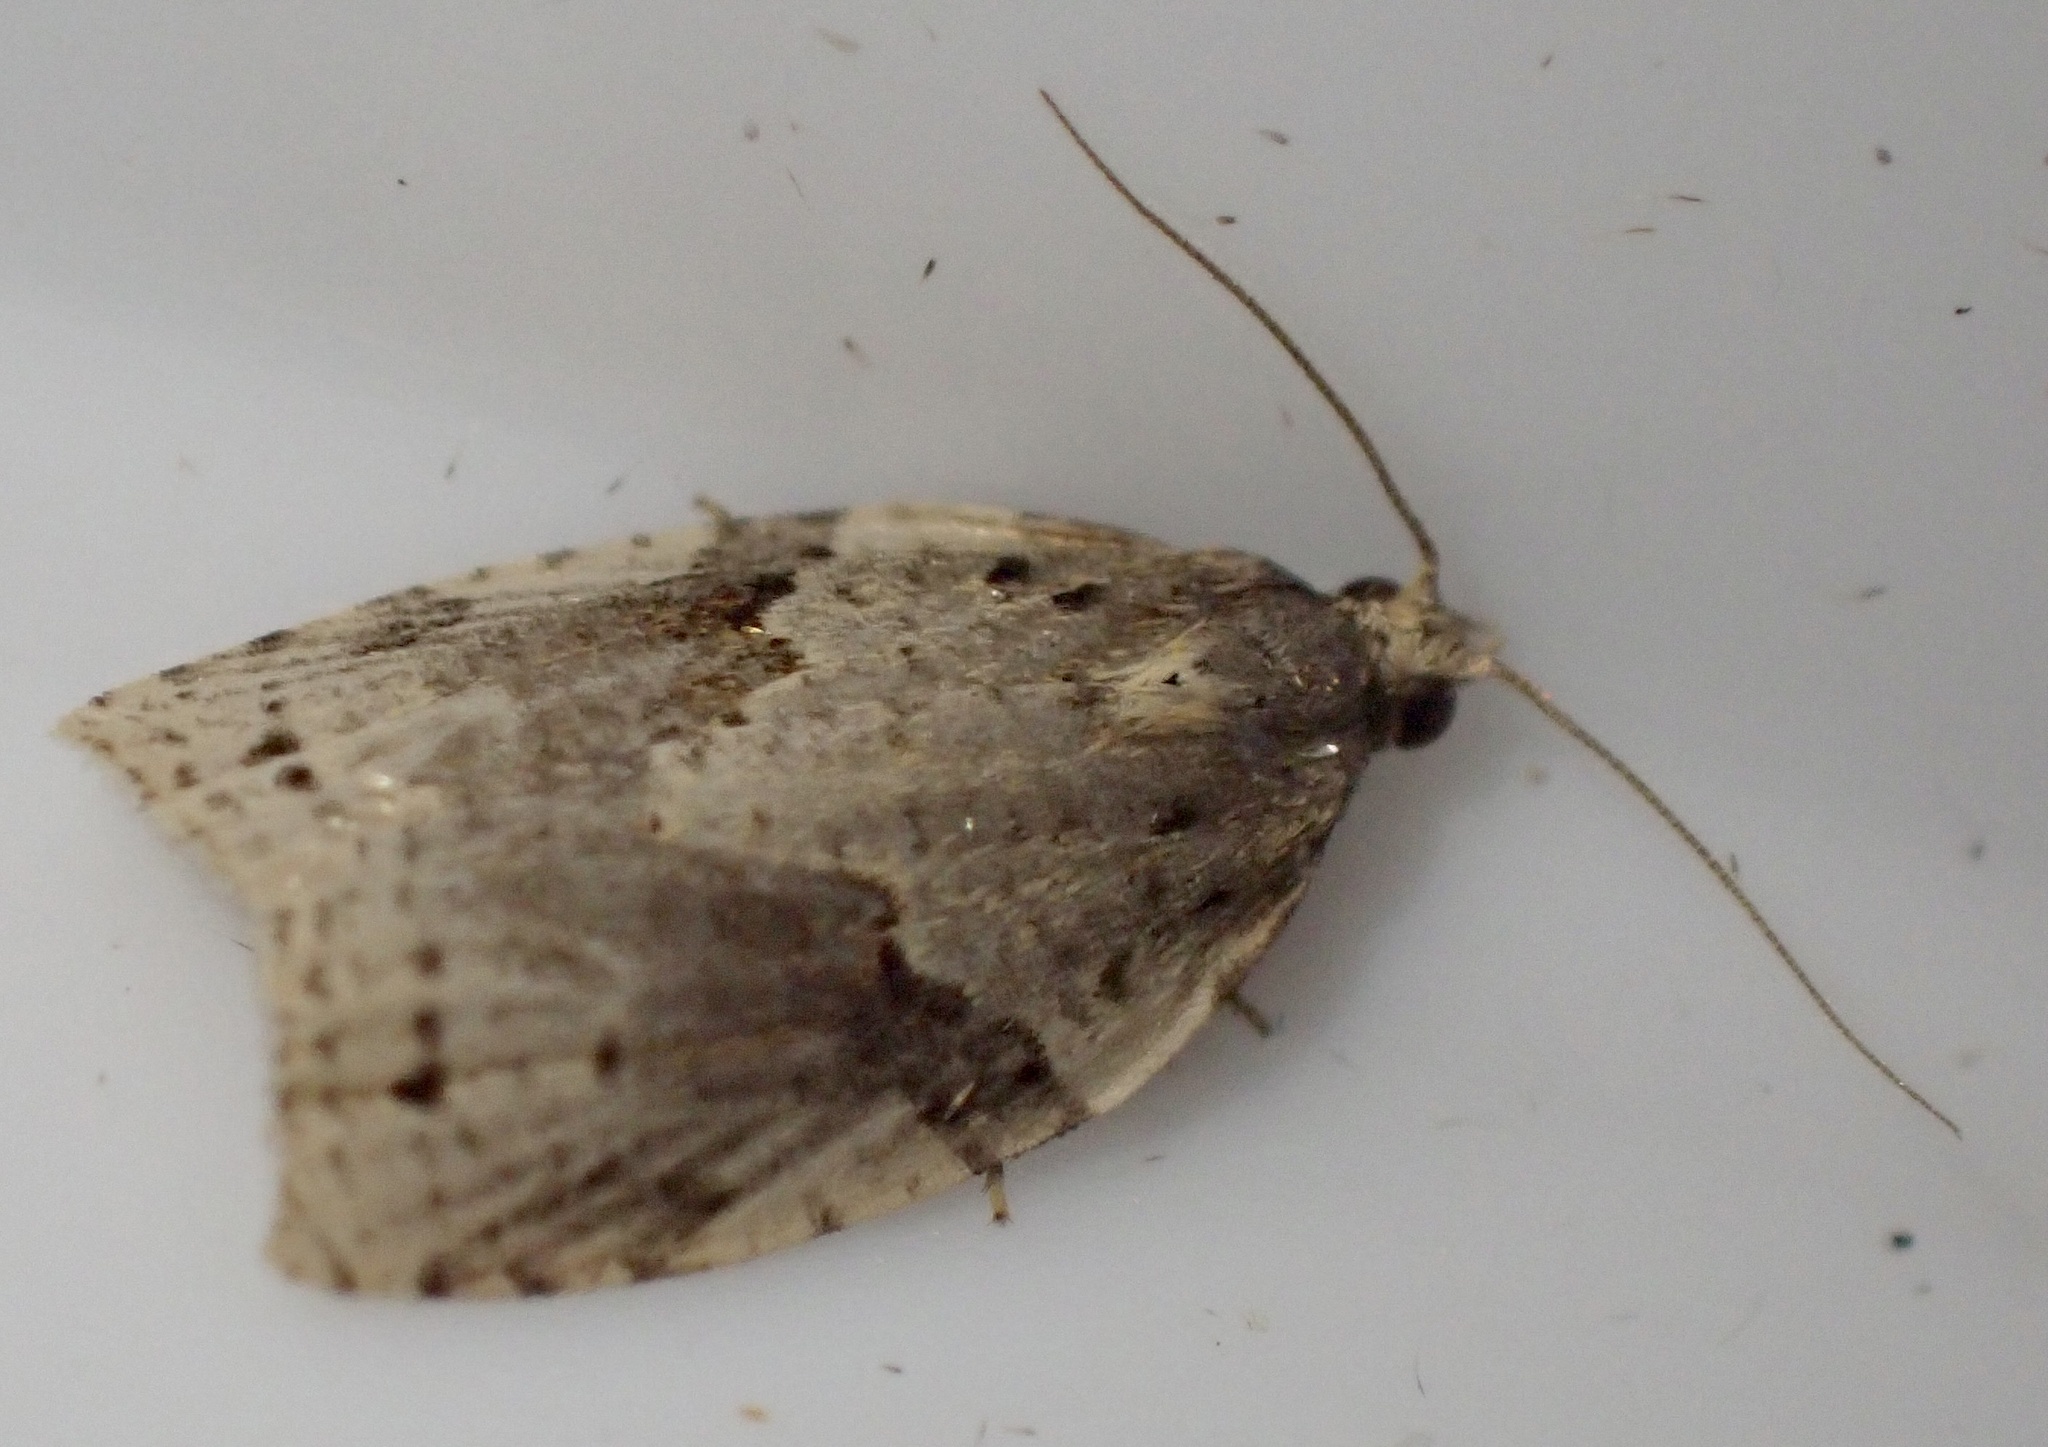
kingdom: Animalia
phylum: Arthropoda
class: Insecta
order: Lepidoptera
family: Tortricidae
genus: Clepsis
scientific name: Clepsis spectrana
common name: Cyclamen tortrix
